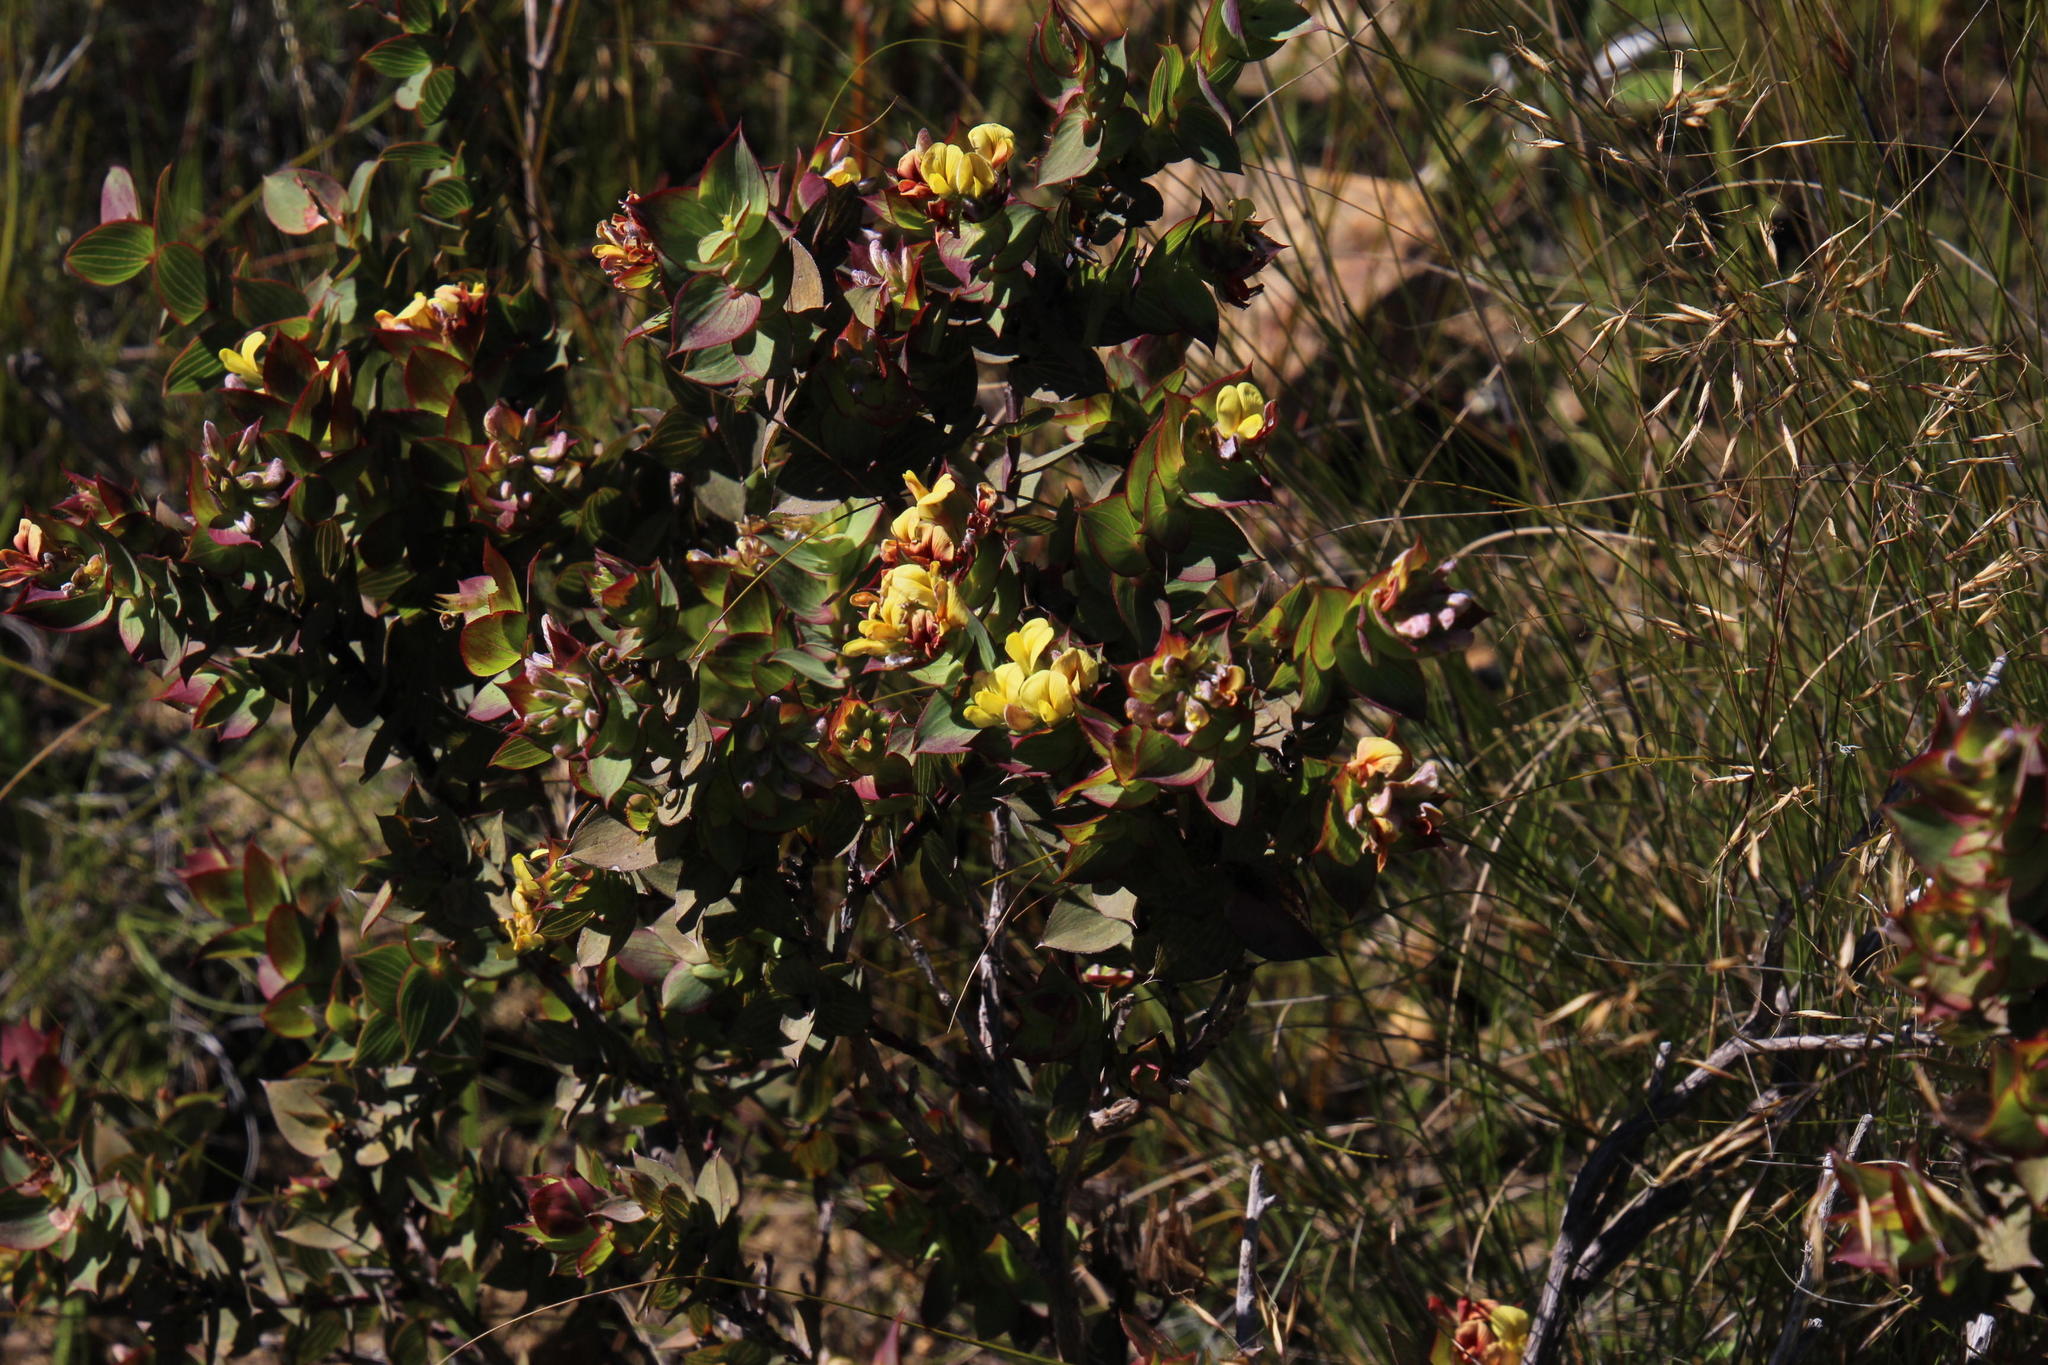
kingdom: Plantae
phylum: Tracheophyta
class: Magnoliopsida
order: Fabales
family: Fabaceae
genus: Aspalathus
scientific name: Aspalathus crenata
